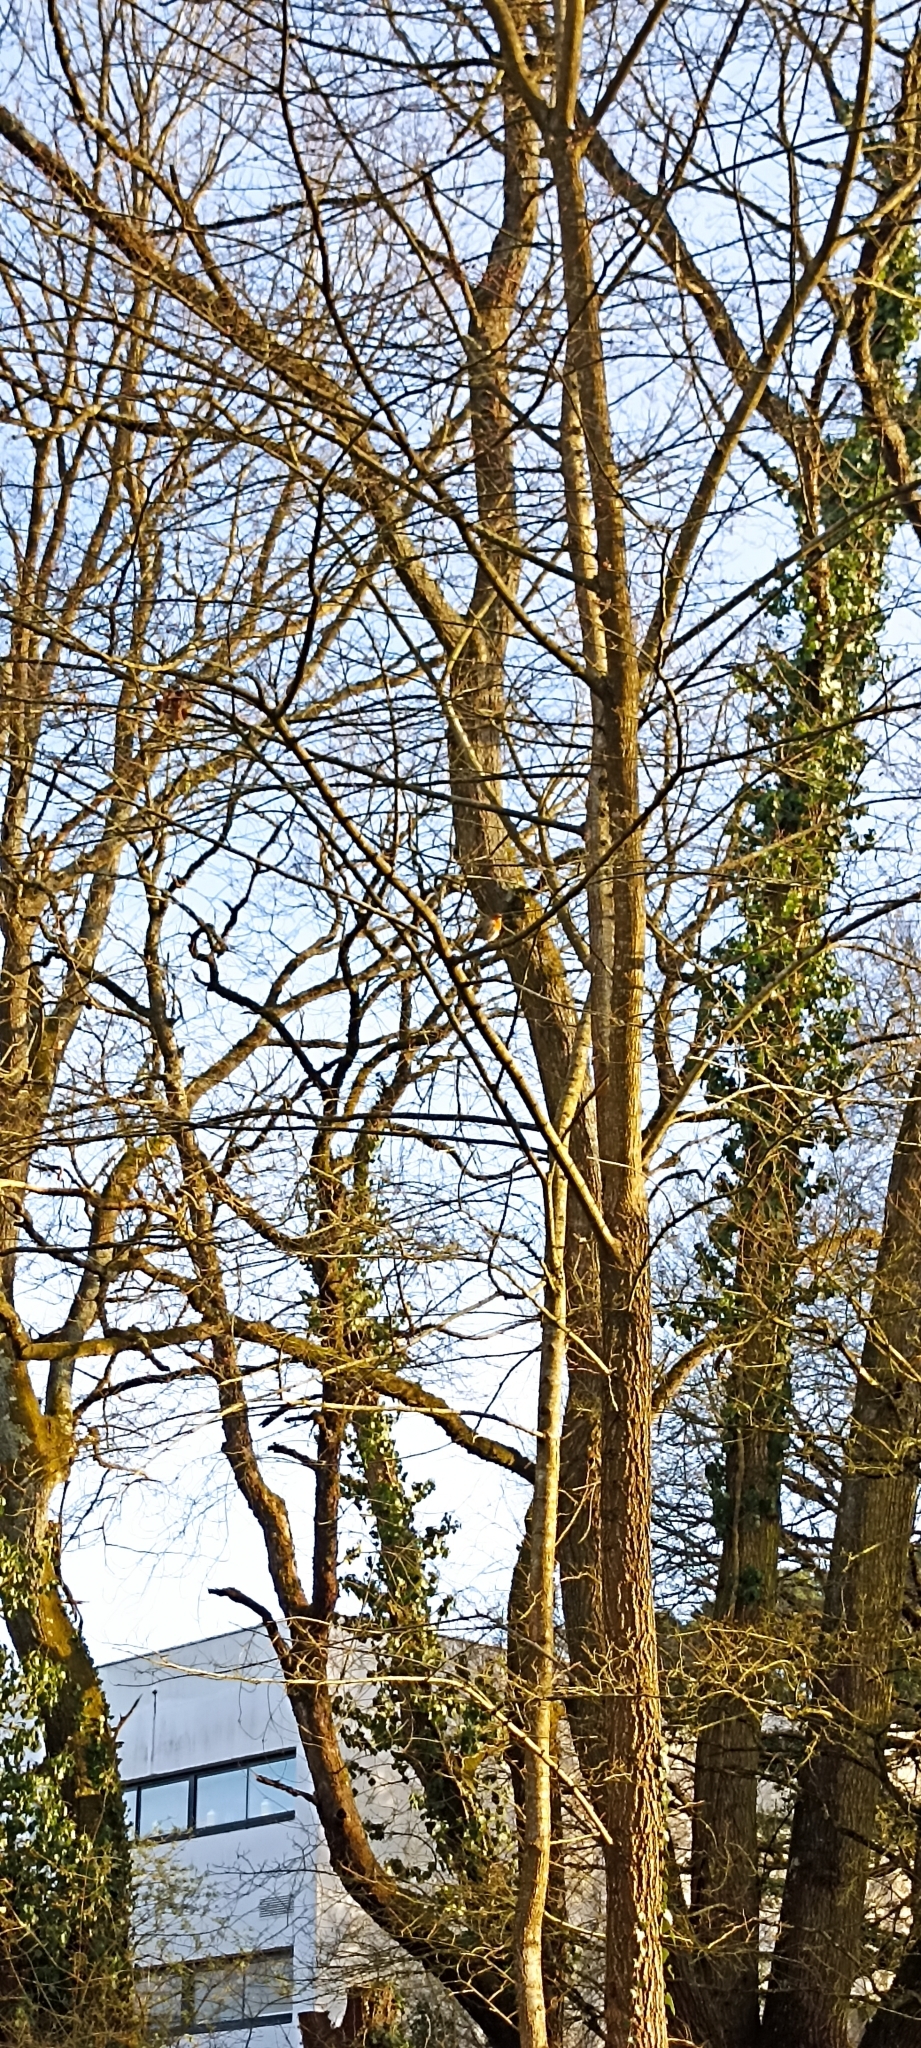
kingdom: Animalia
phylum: Chordata
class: Aves
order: Passeriformes
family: Muscicapidae
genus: Erithacus
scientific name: Erithacus rubecula
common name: European robin
